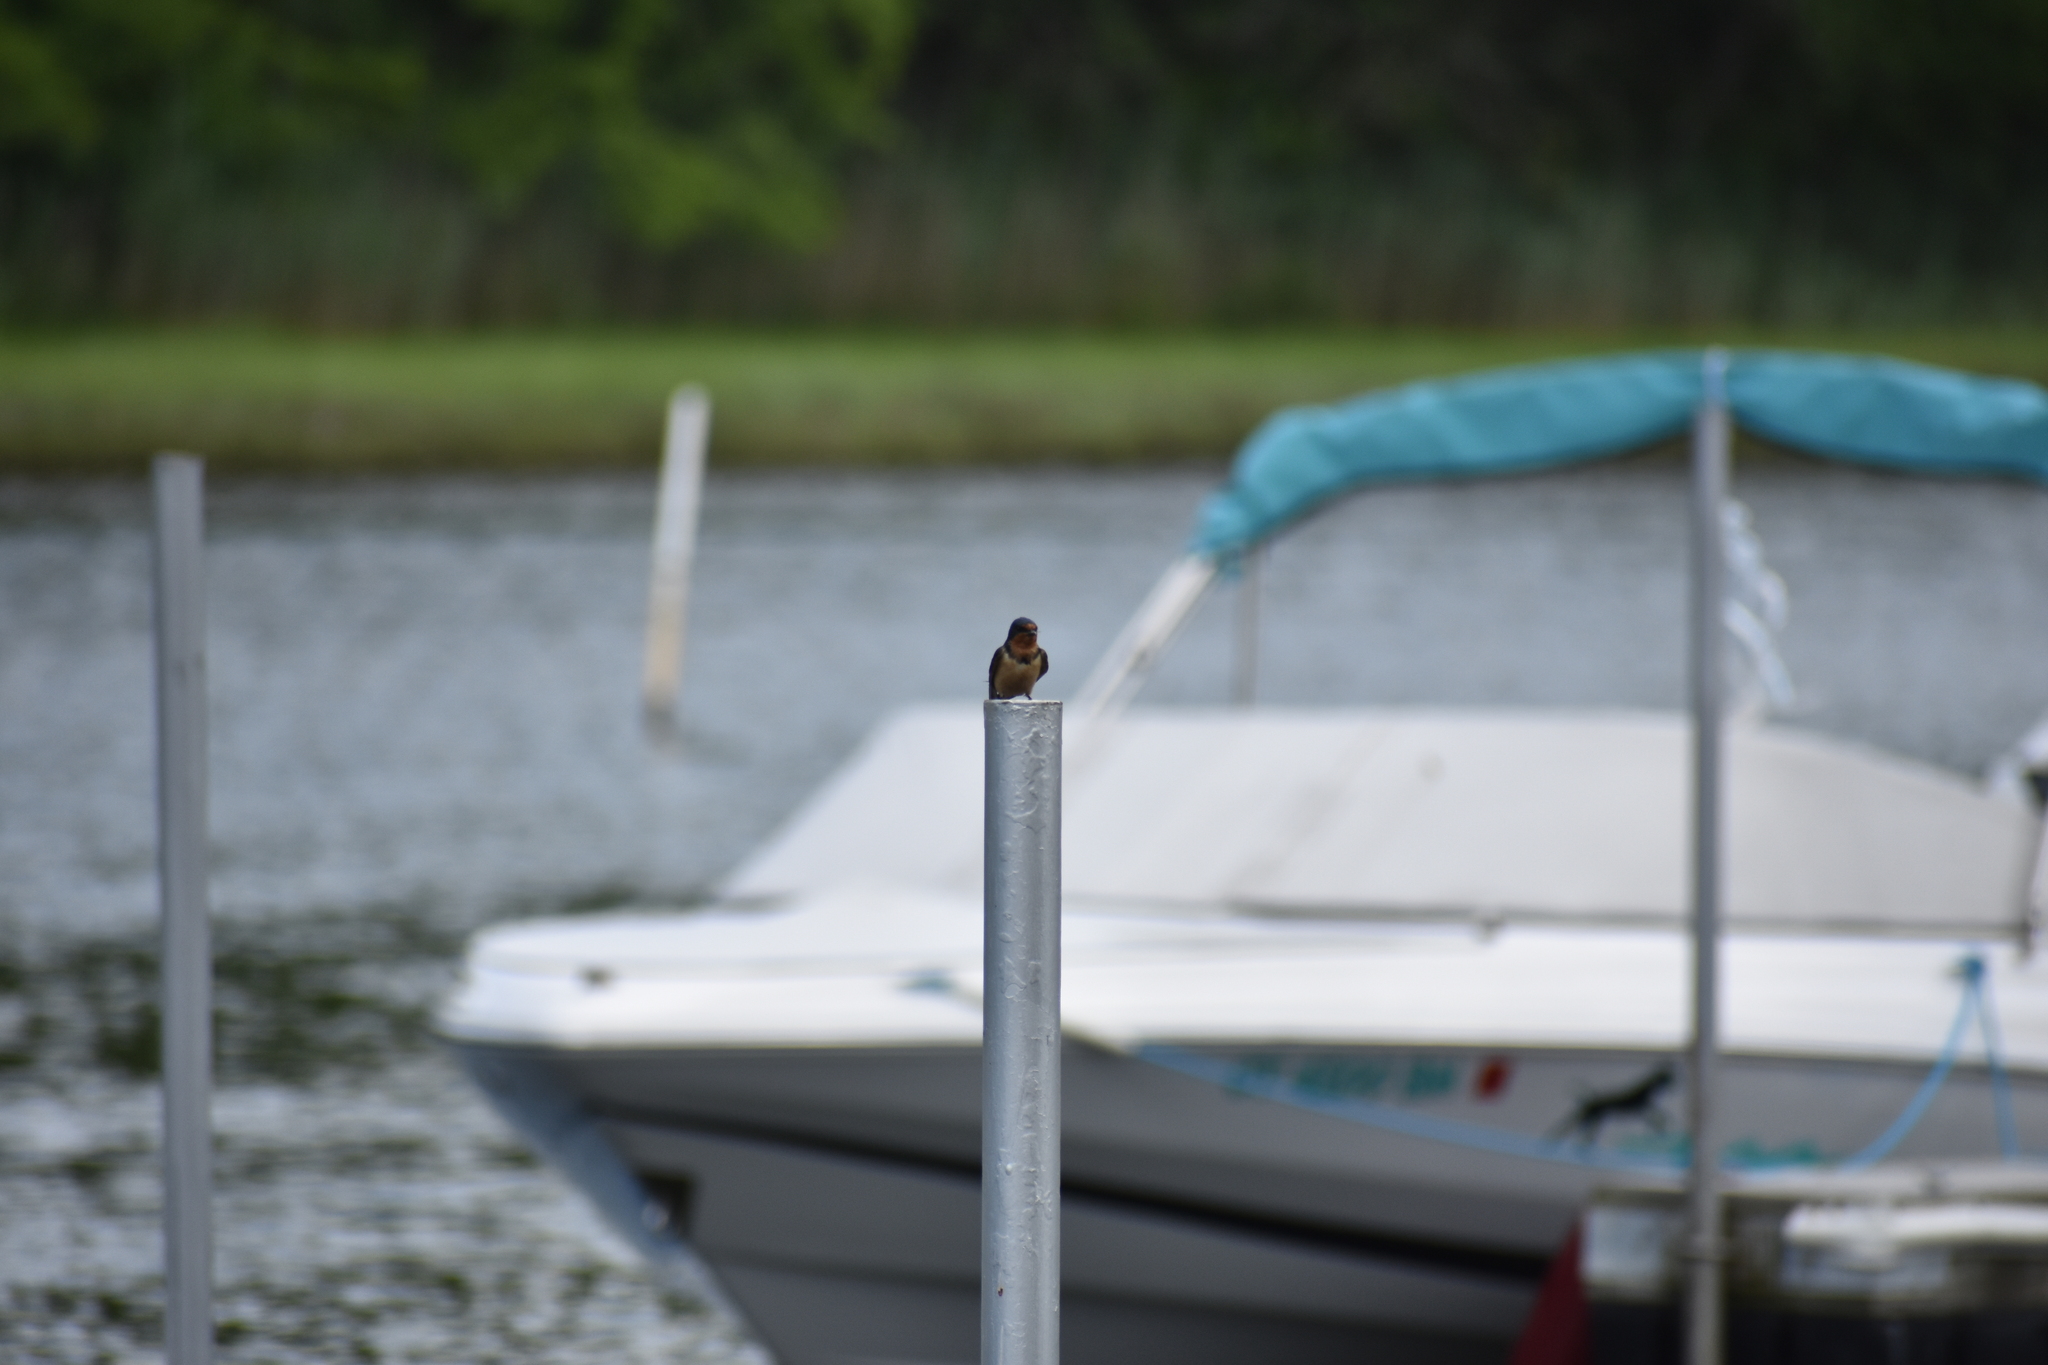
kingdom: Animalia
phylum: Chordata
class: Aves
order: Passeriformes
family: Hirundinidae
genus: Hirundo
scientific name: Hirundo rustica
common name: Barn swallow
